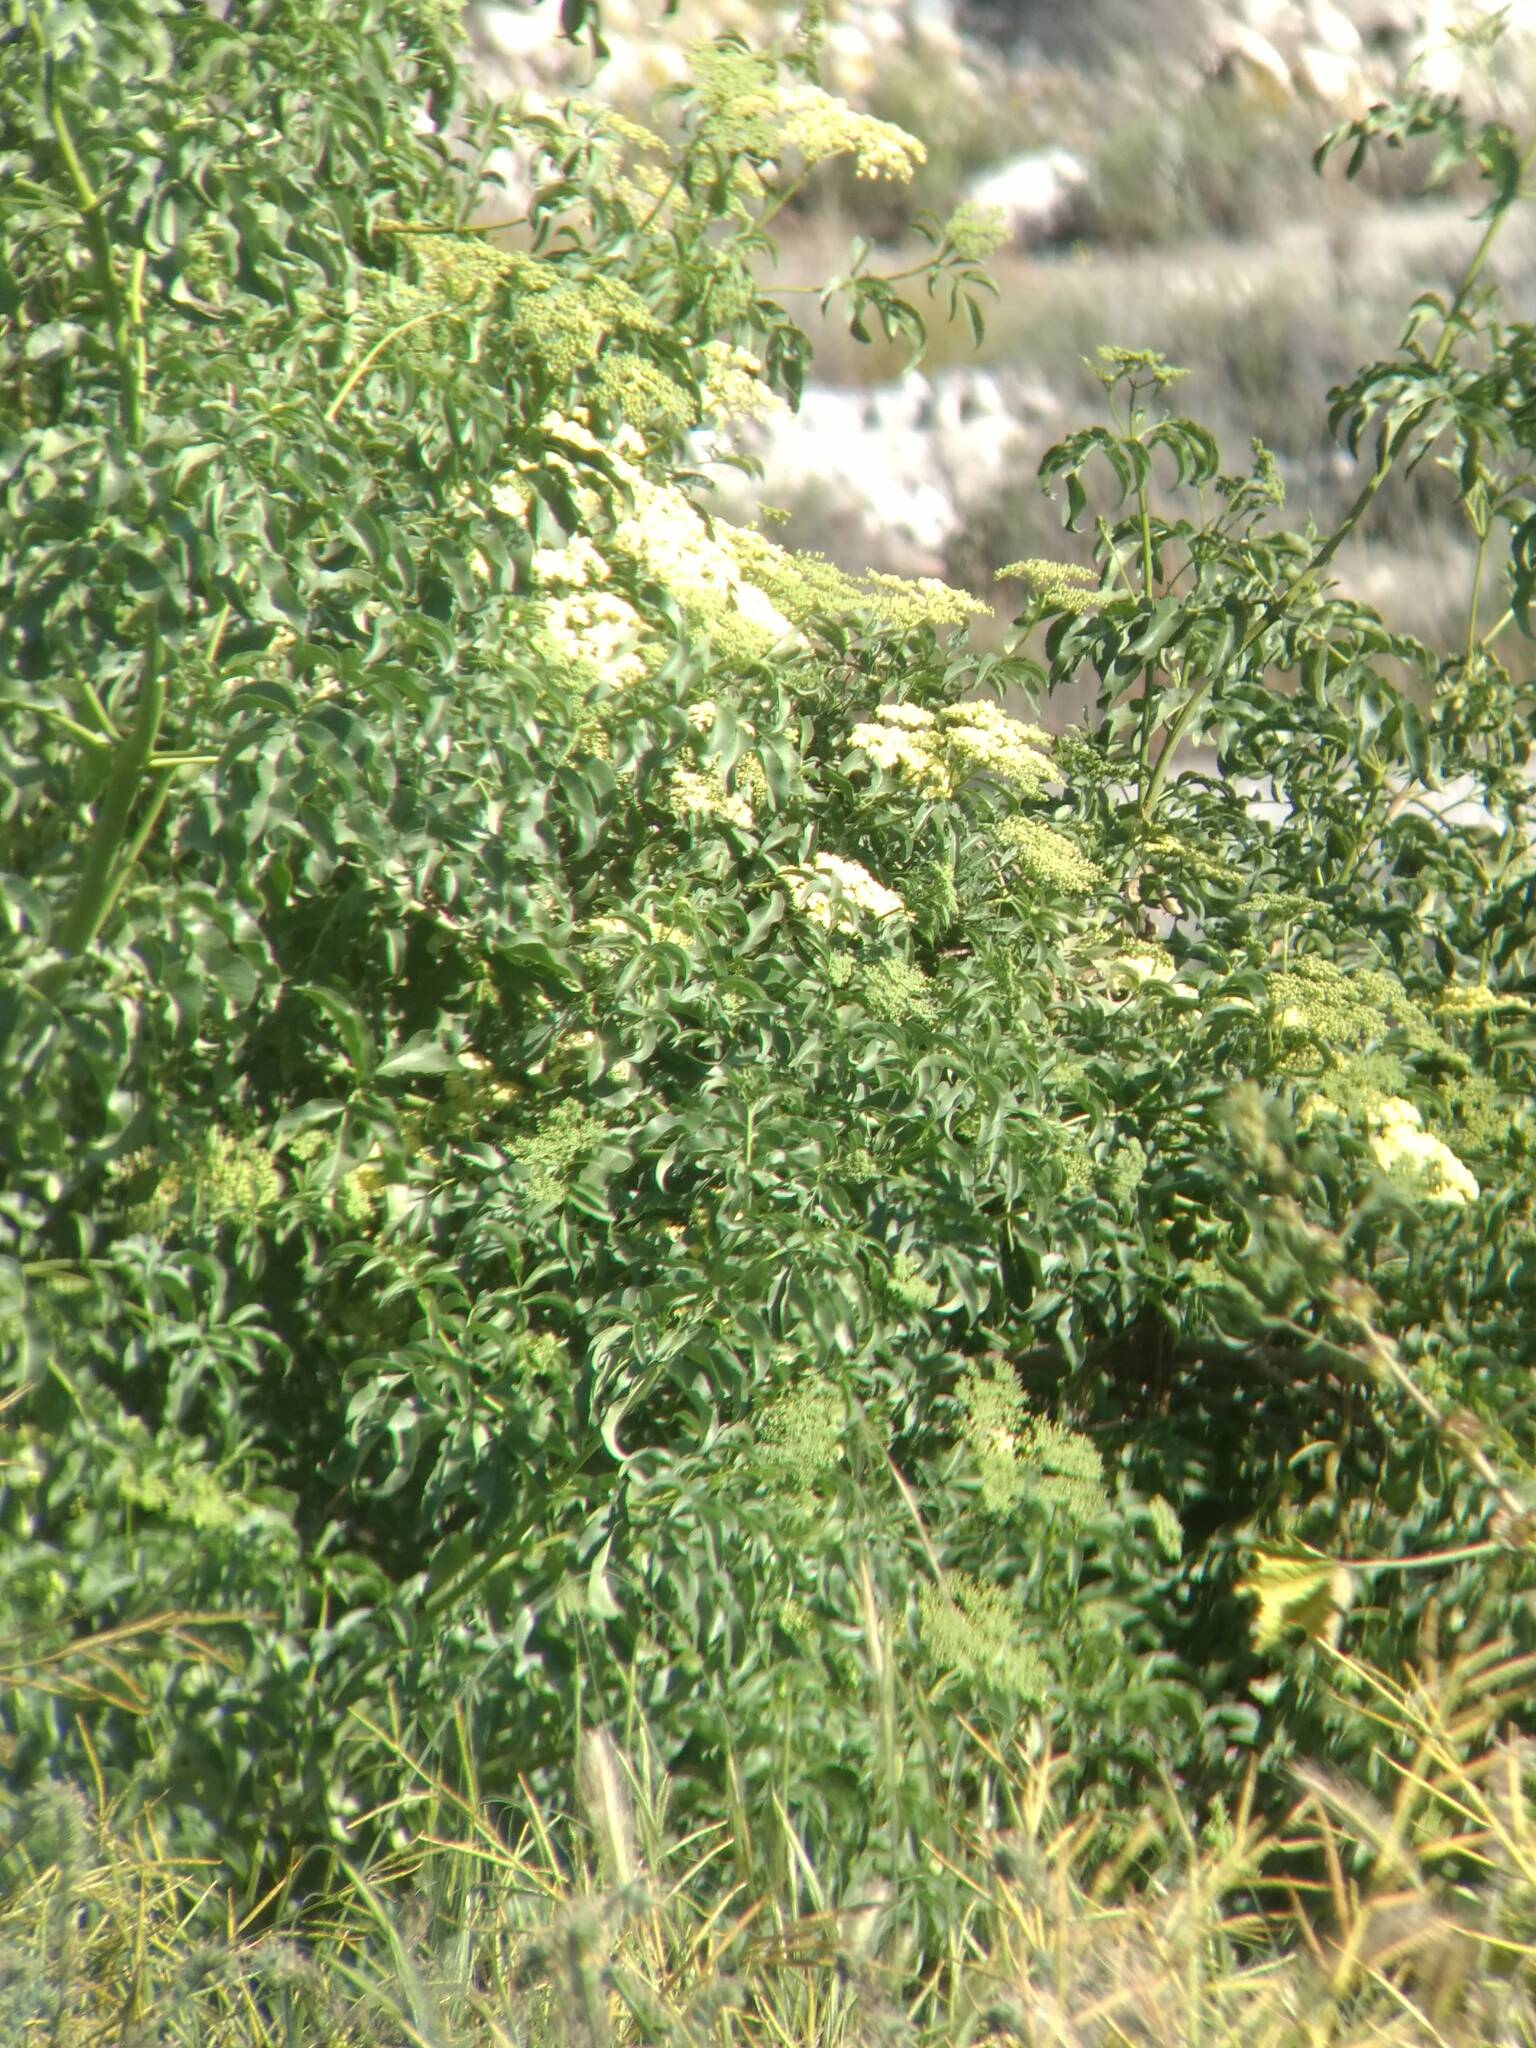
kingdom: Plantae
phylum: Tracheophyta
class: Magnoliopsida
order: Dipsacales
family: Viburnaceae
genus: Sambucus
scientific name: Sambucus cerulea
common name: Blue elder
